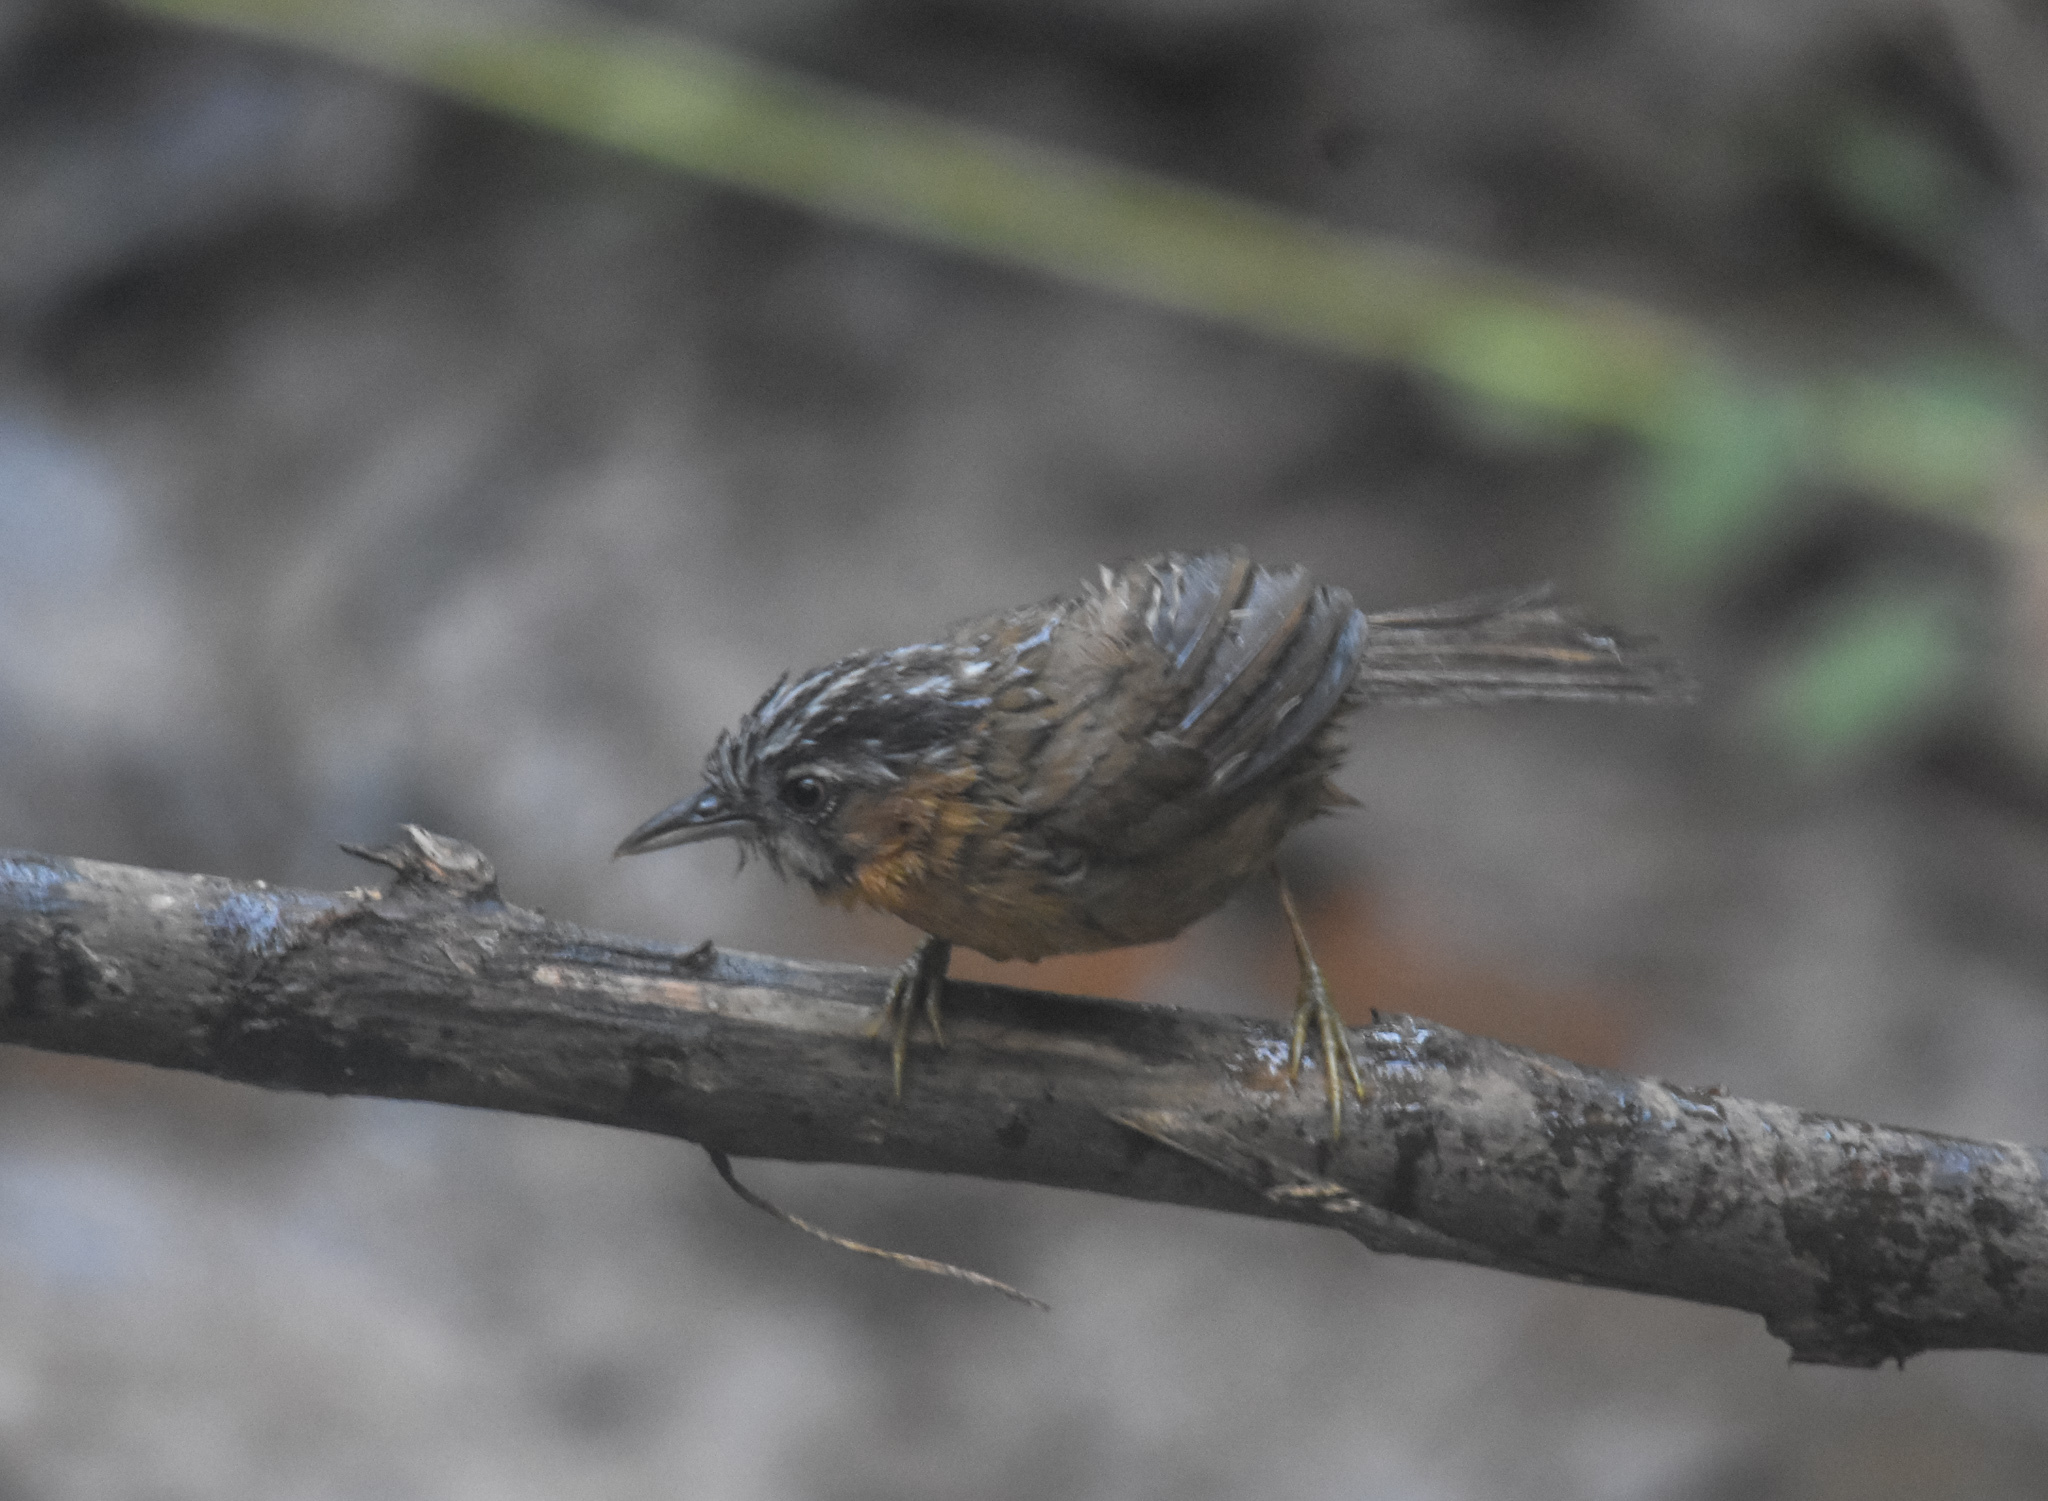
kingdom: Animalia
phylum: Chordata
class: Aves
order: Passeriformes
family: Timaliidae
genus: Stachyris
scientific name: Stachyris nigriceps
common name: Grey-throated babbler
